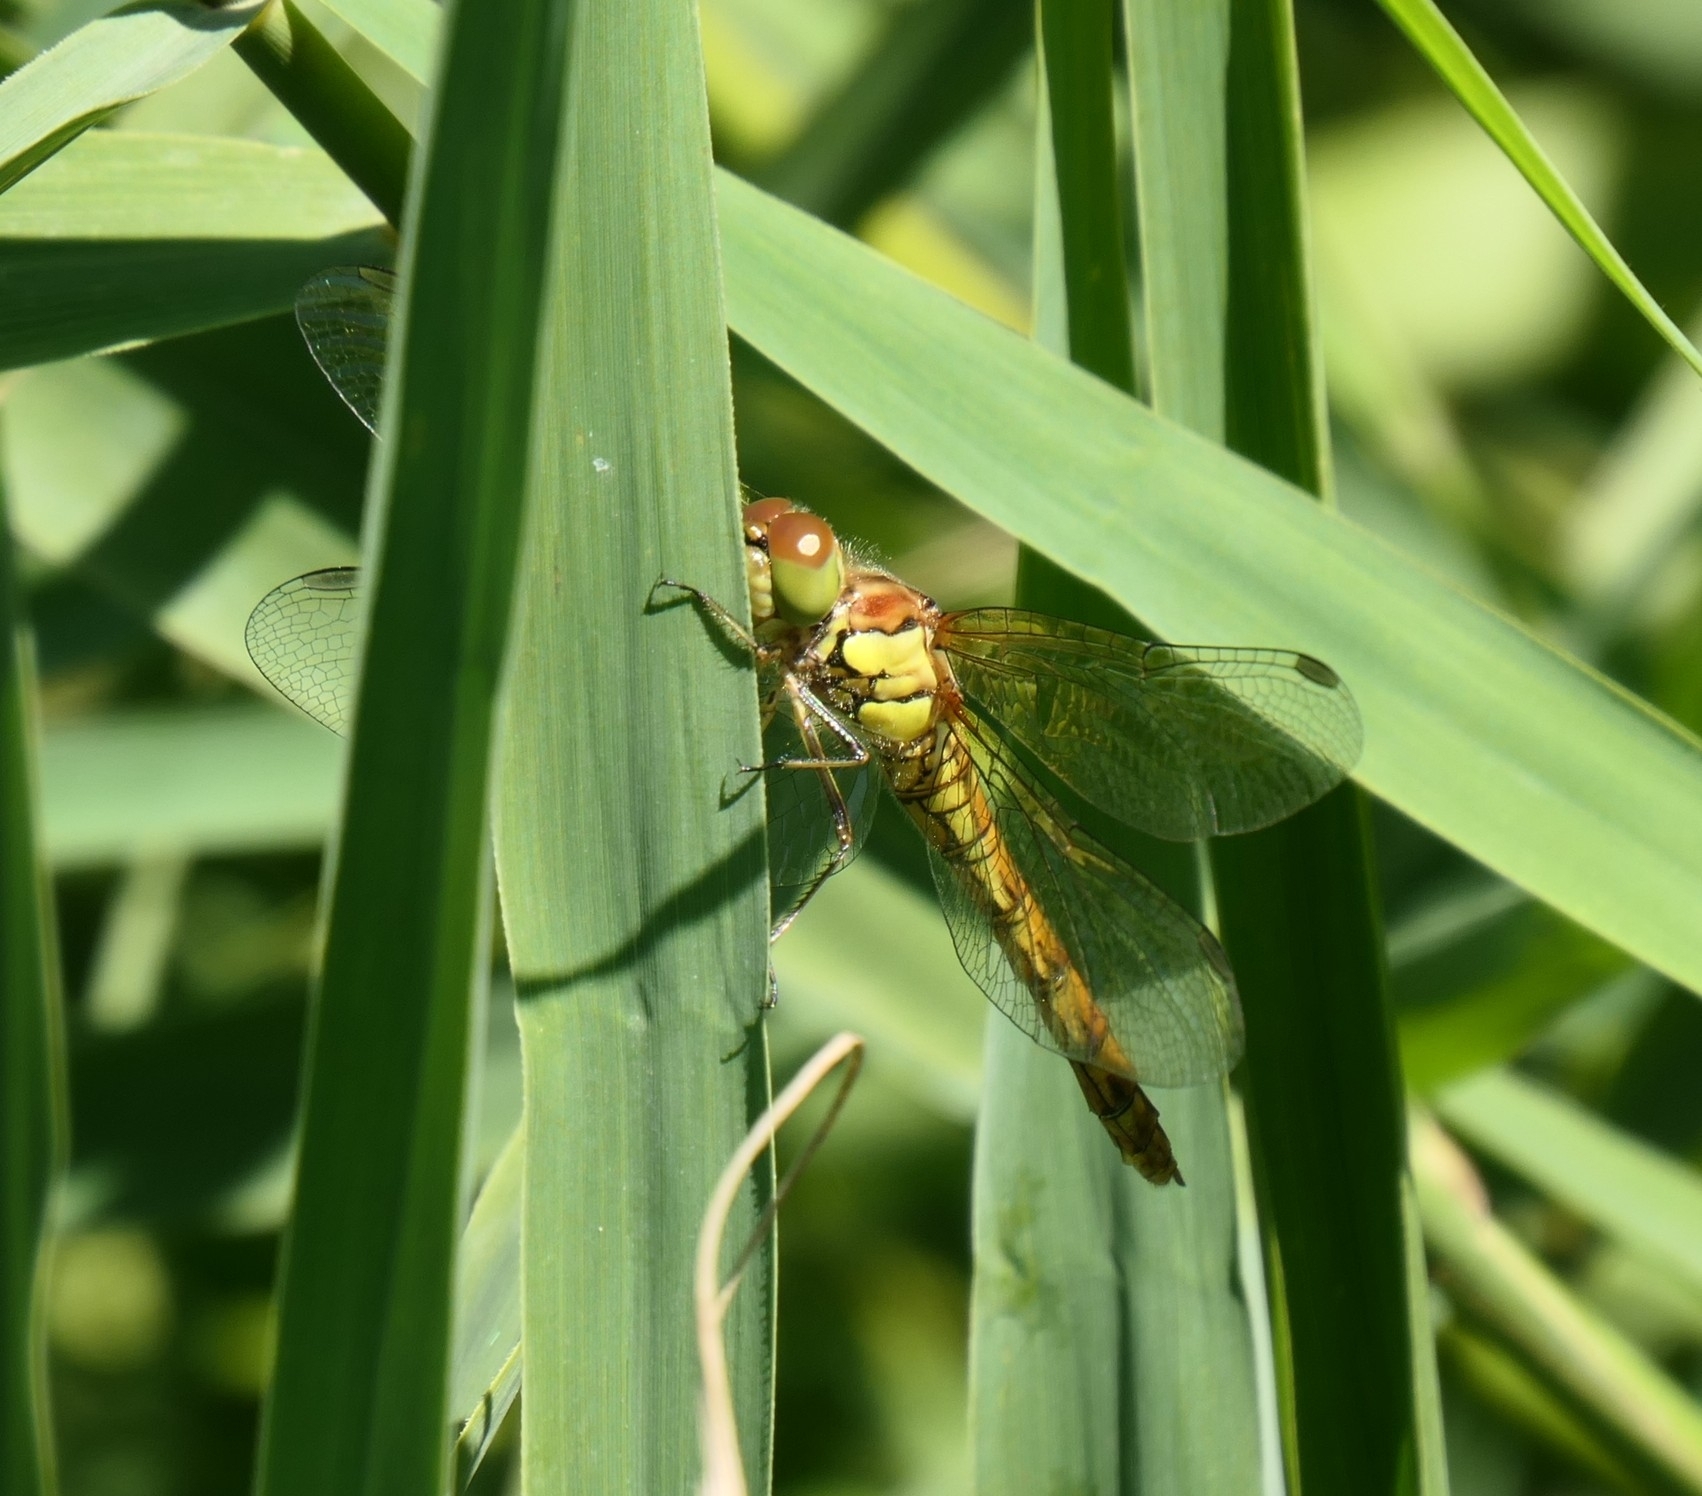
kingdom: Animalia
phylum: Arthropoda
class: Insecta
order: Odonata
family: Libellulidae
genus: Sympetrum
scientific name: Sympetrum striolatum
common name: Common darter
